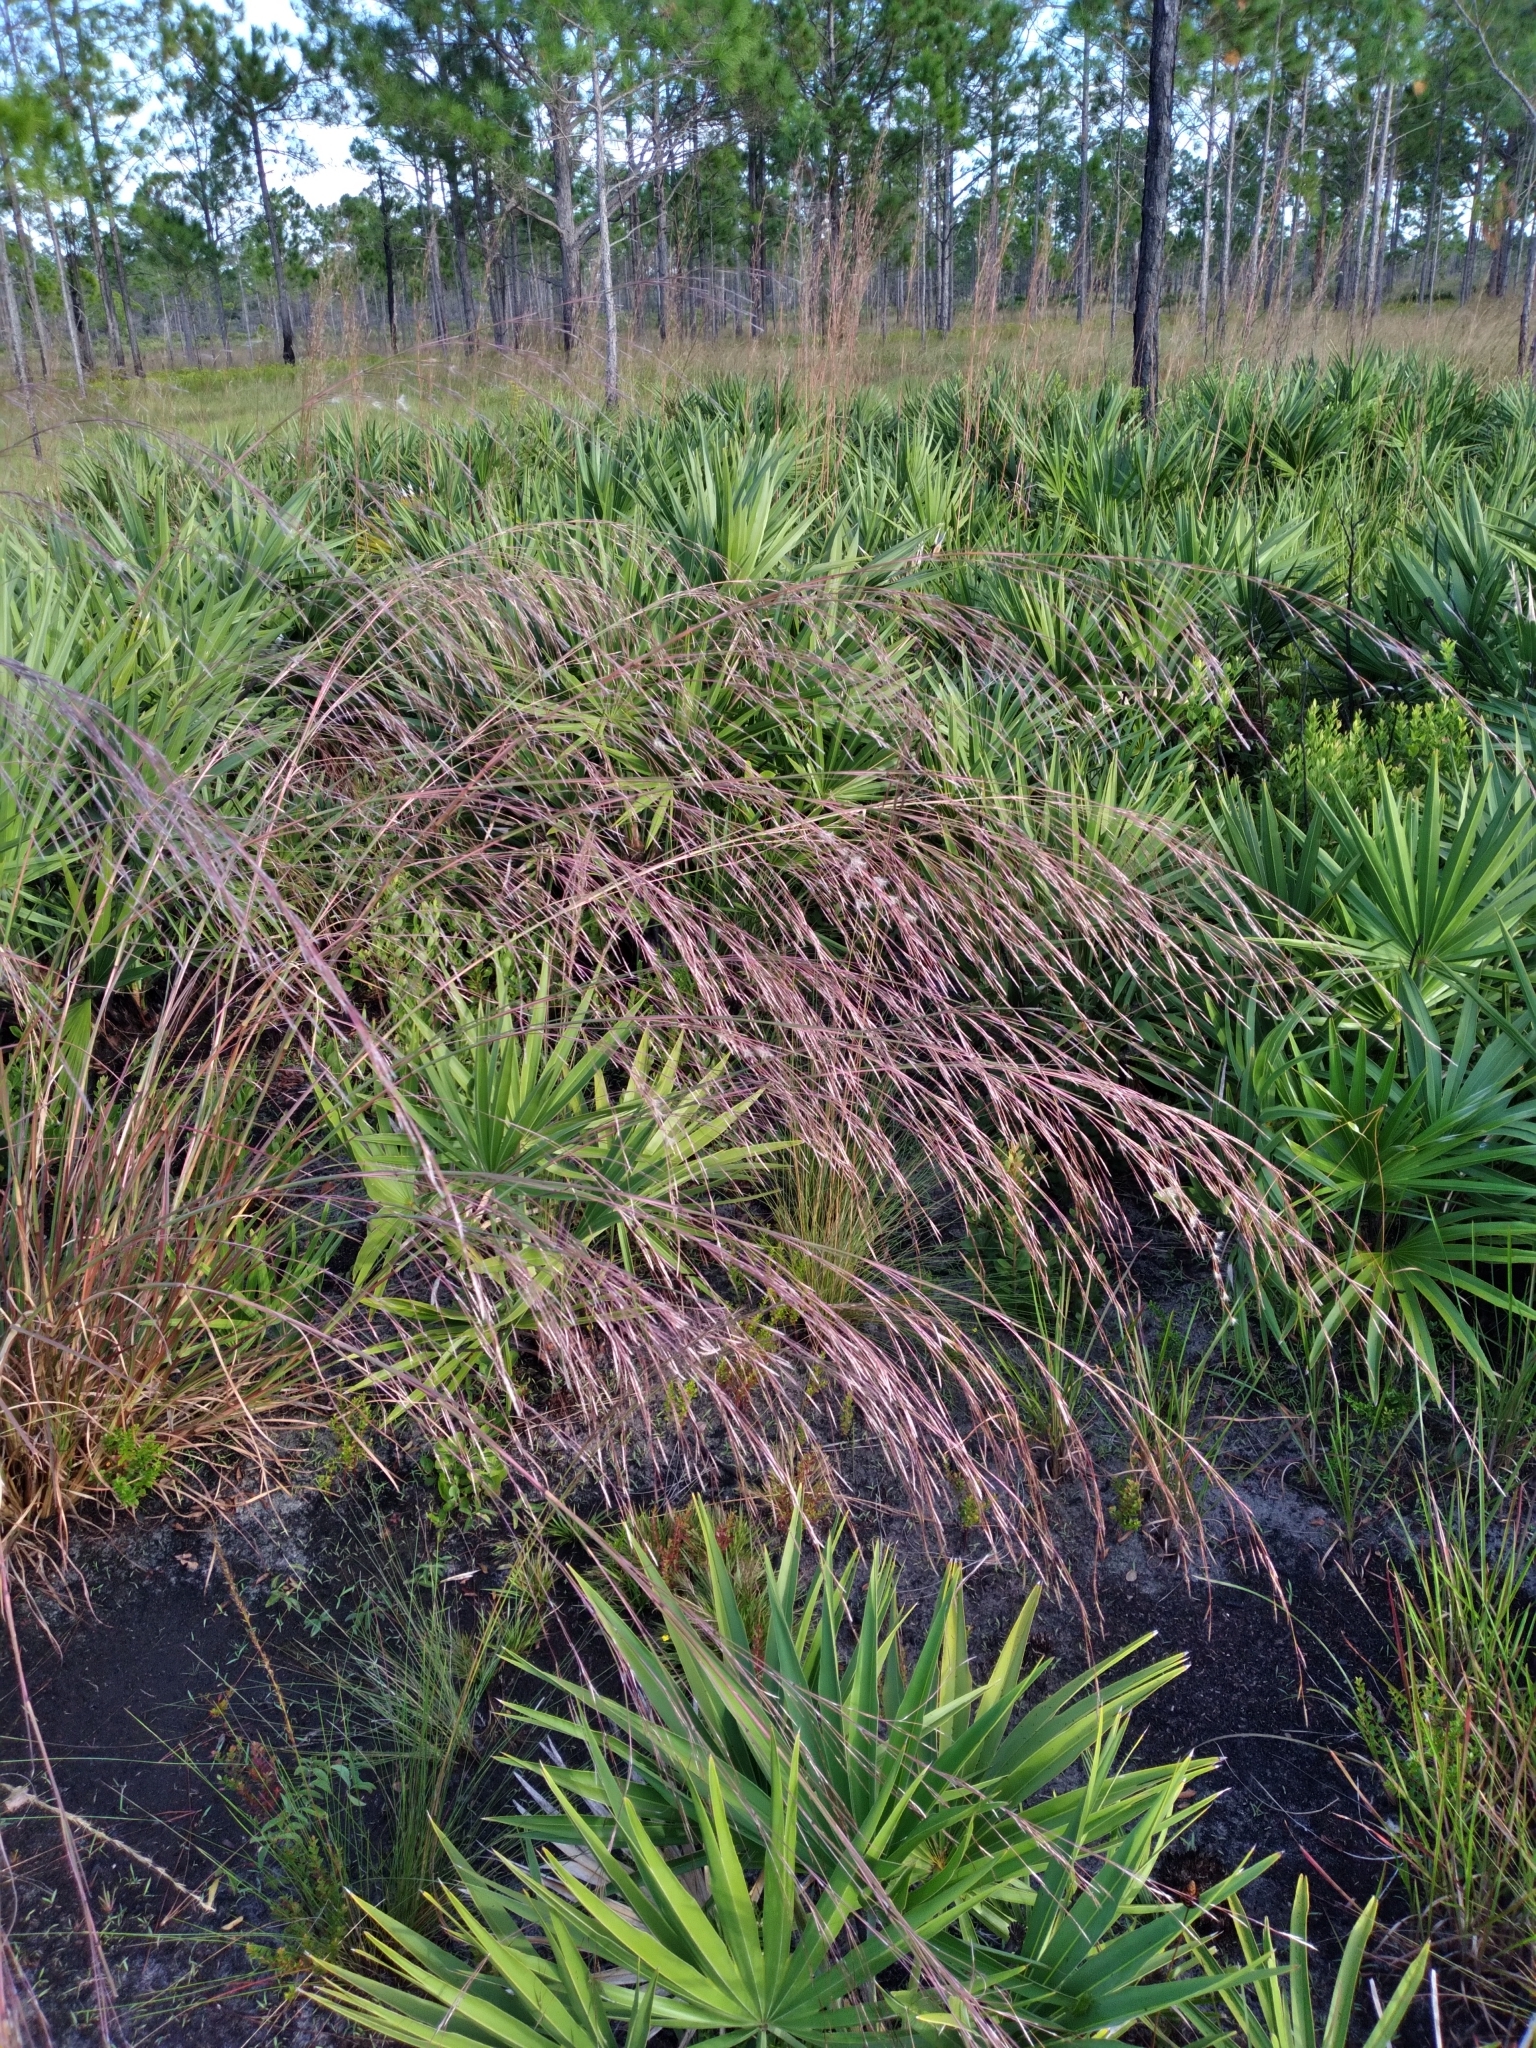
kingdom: Plantae
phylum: Tracheophyta
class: Liliopsida
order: Poales
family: Poaceae
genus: Andropogon
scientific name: Andropogon brachystachyus
